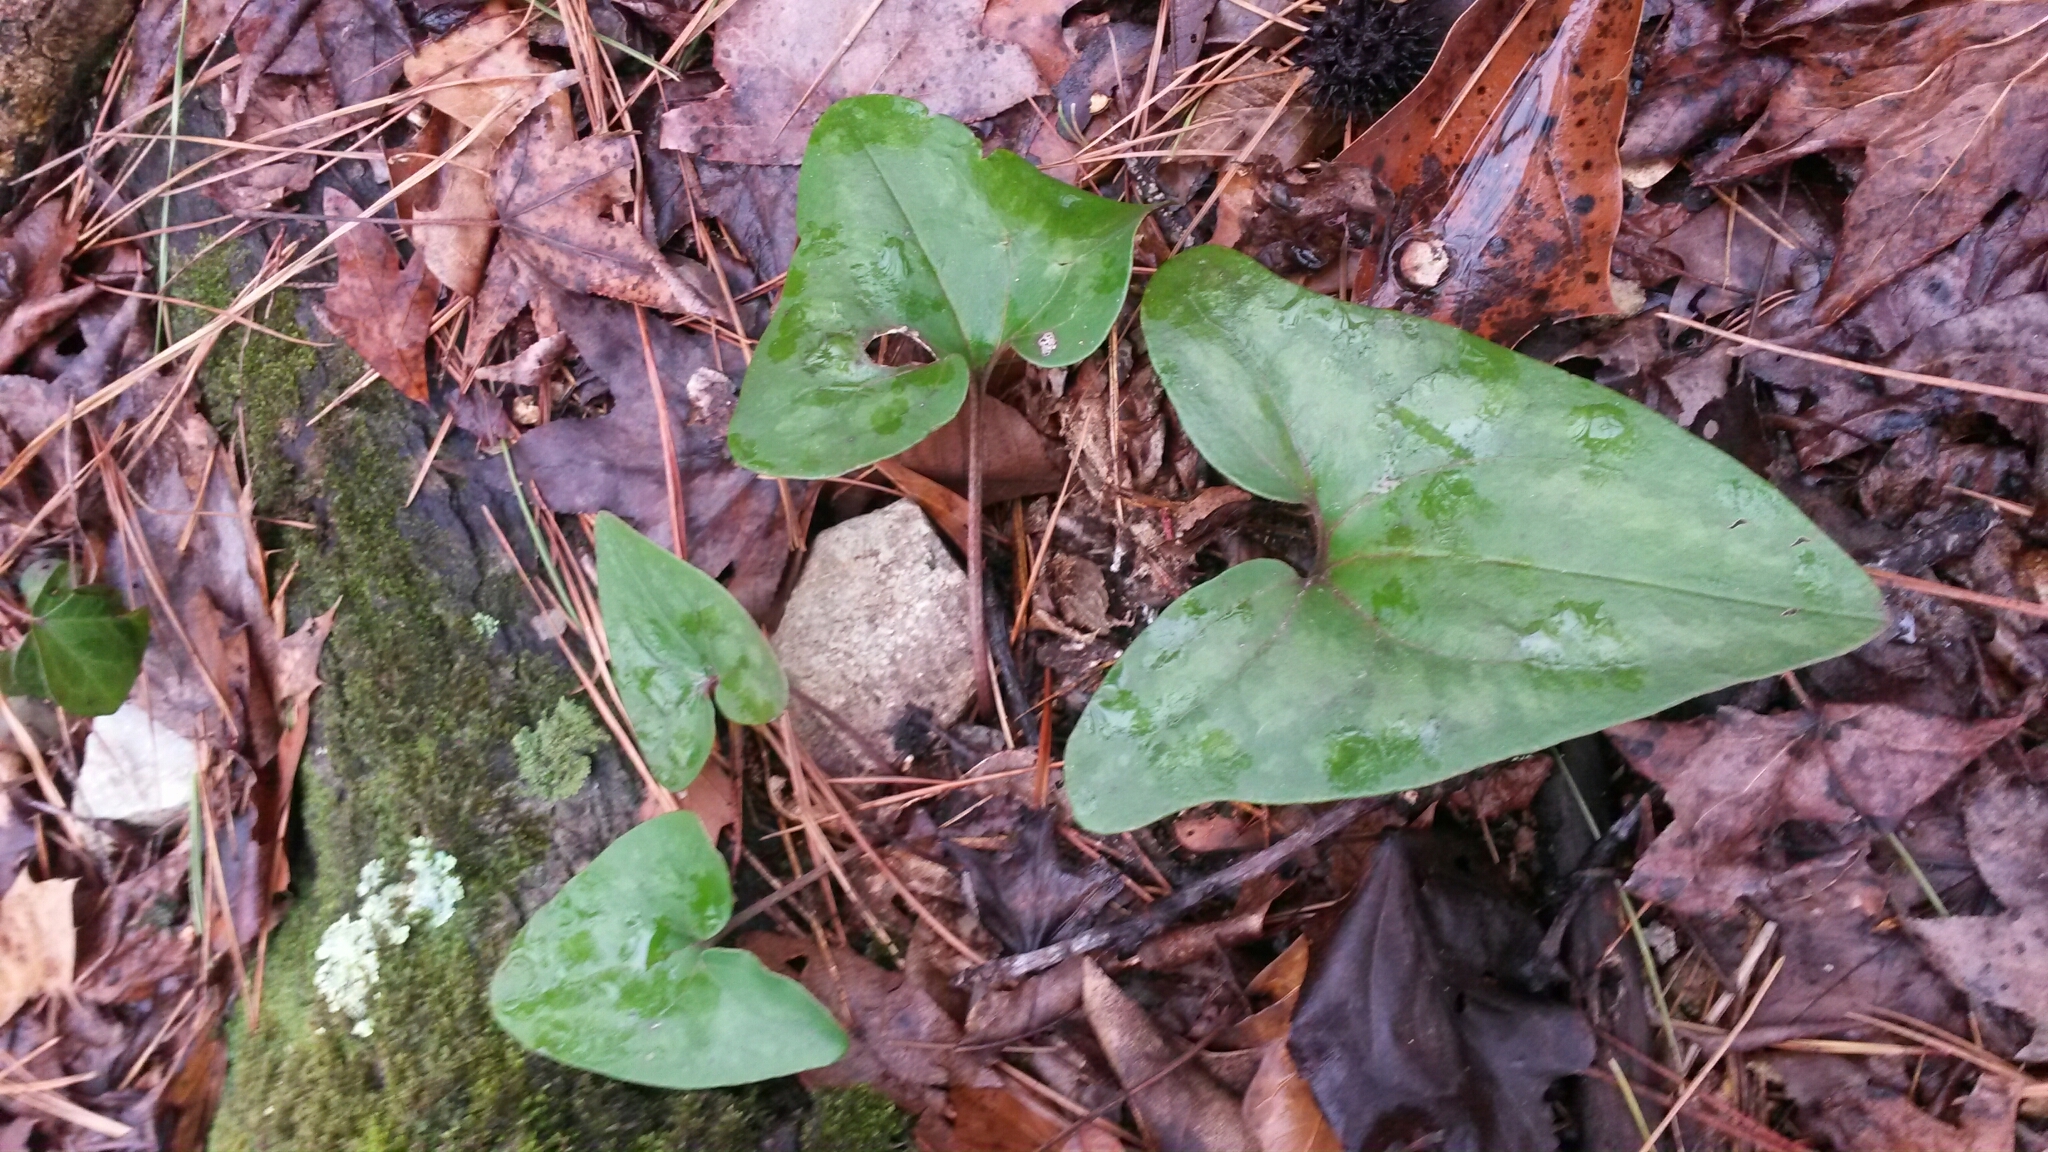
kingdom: Plantae
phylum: Tracheophyta
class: Magnoliopsida
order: Piperales
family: Aristolochiaceae
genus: Hexastylis
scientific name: Hexastylis arifolia
